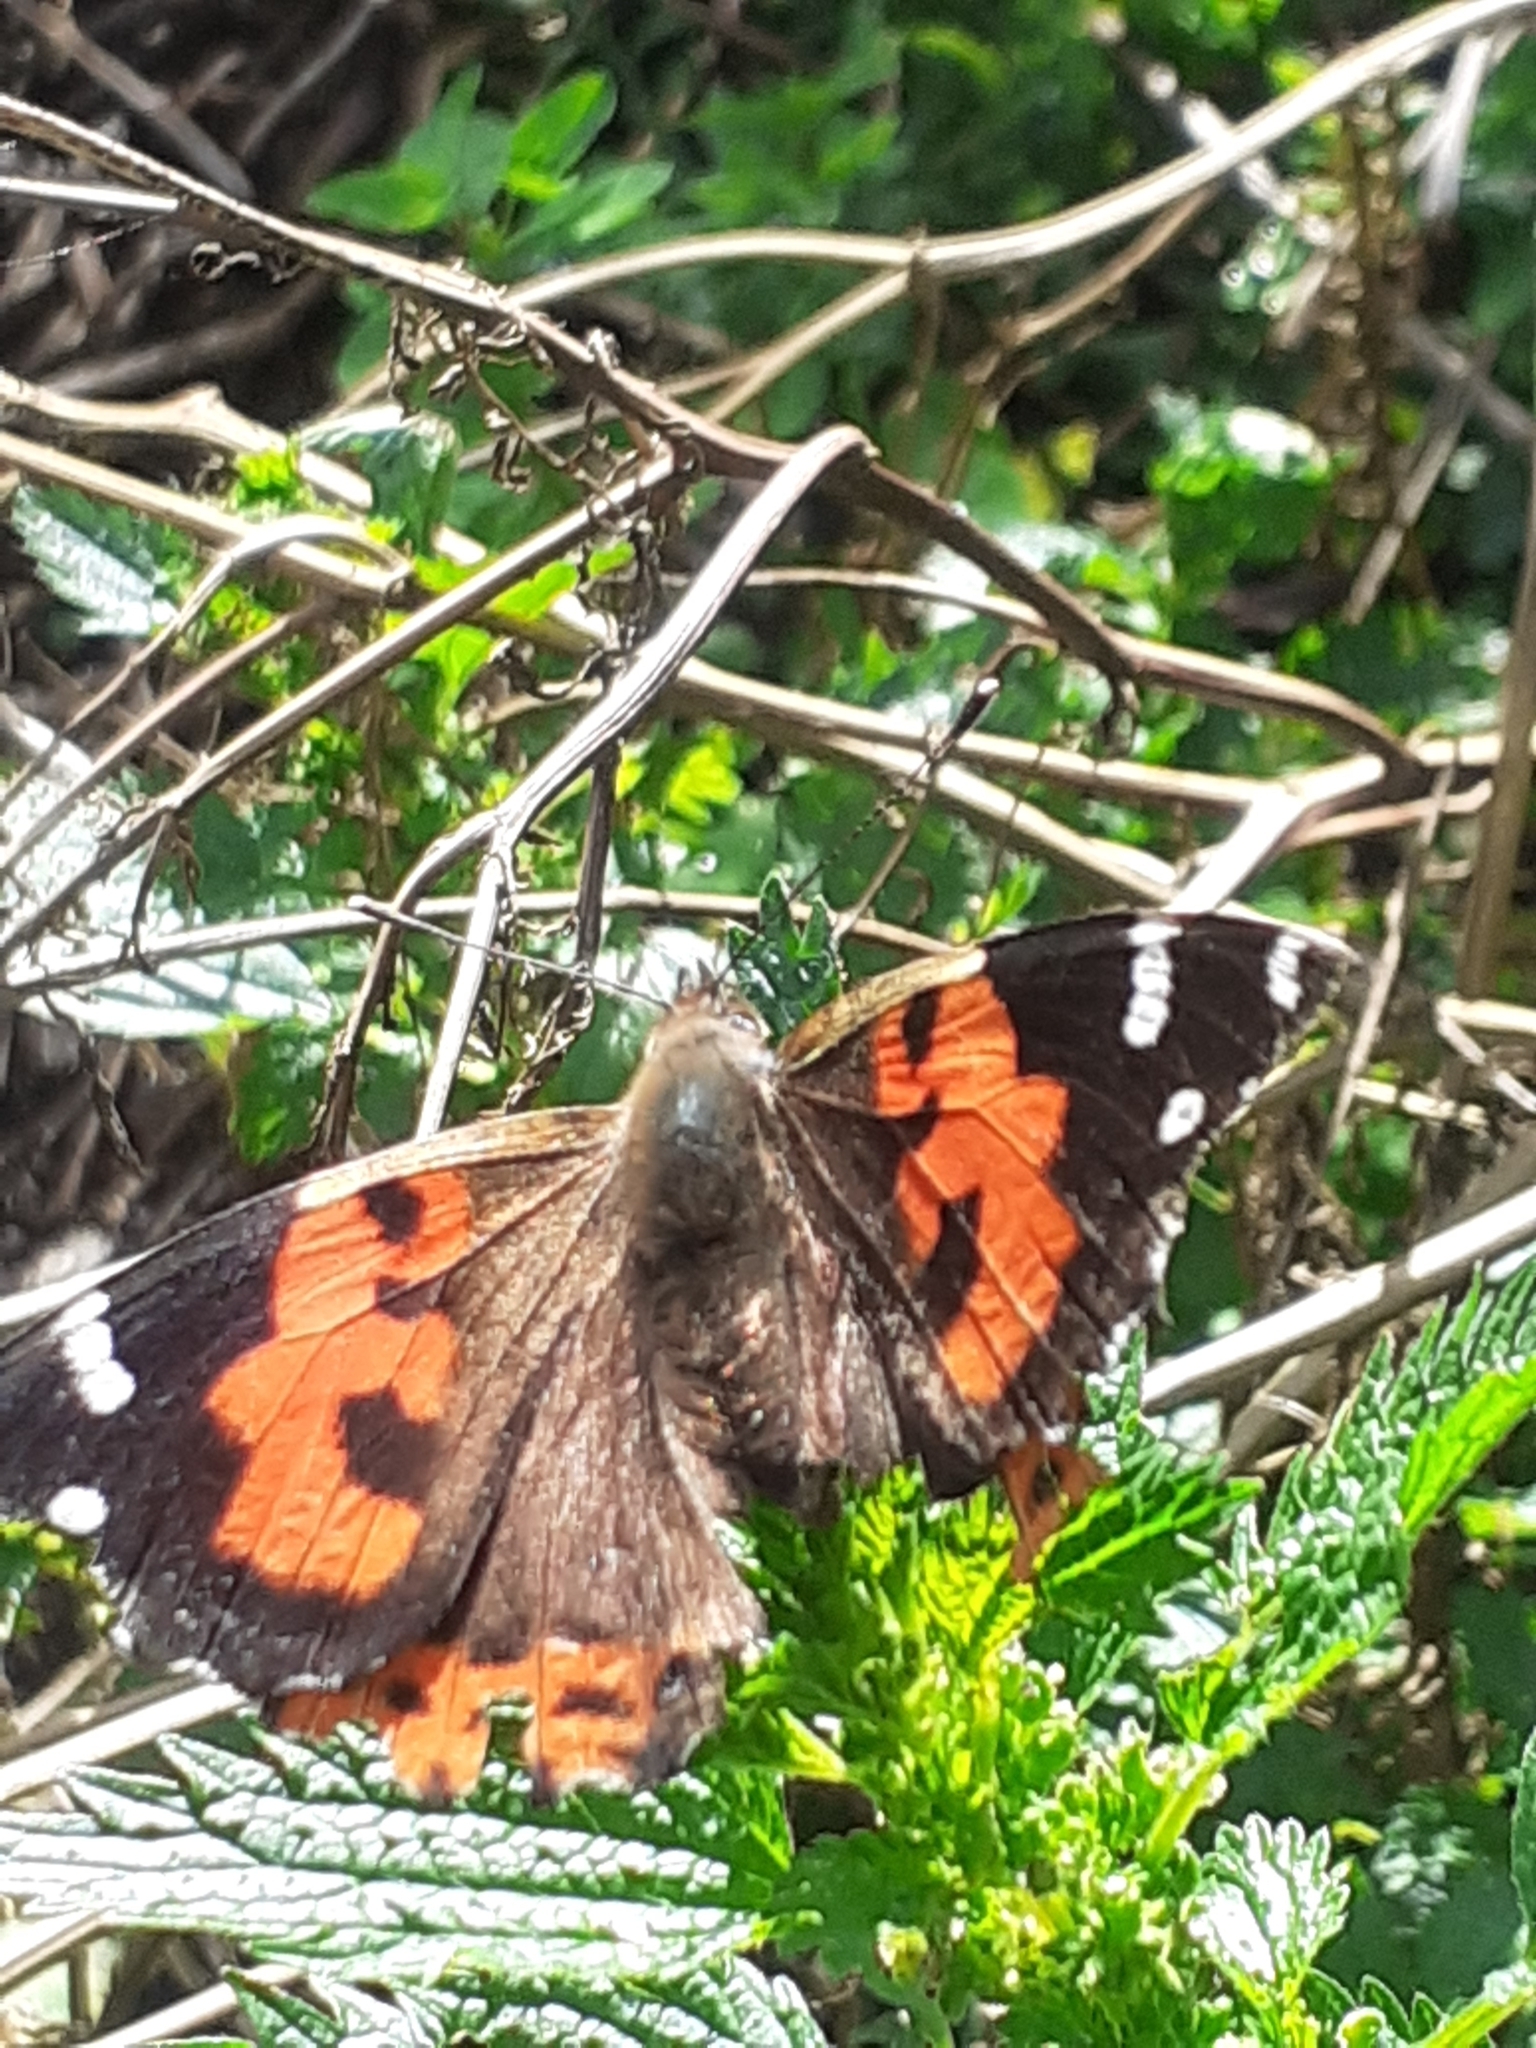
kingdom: Animalia
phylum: Arthropoda
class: Insecta
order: Lepidoptera
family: Nymphalidae
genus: Vanessa
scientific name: Vanessa vulcania
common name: Canary red admiral
